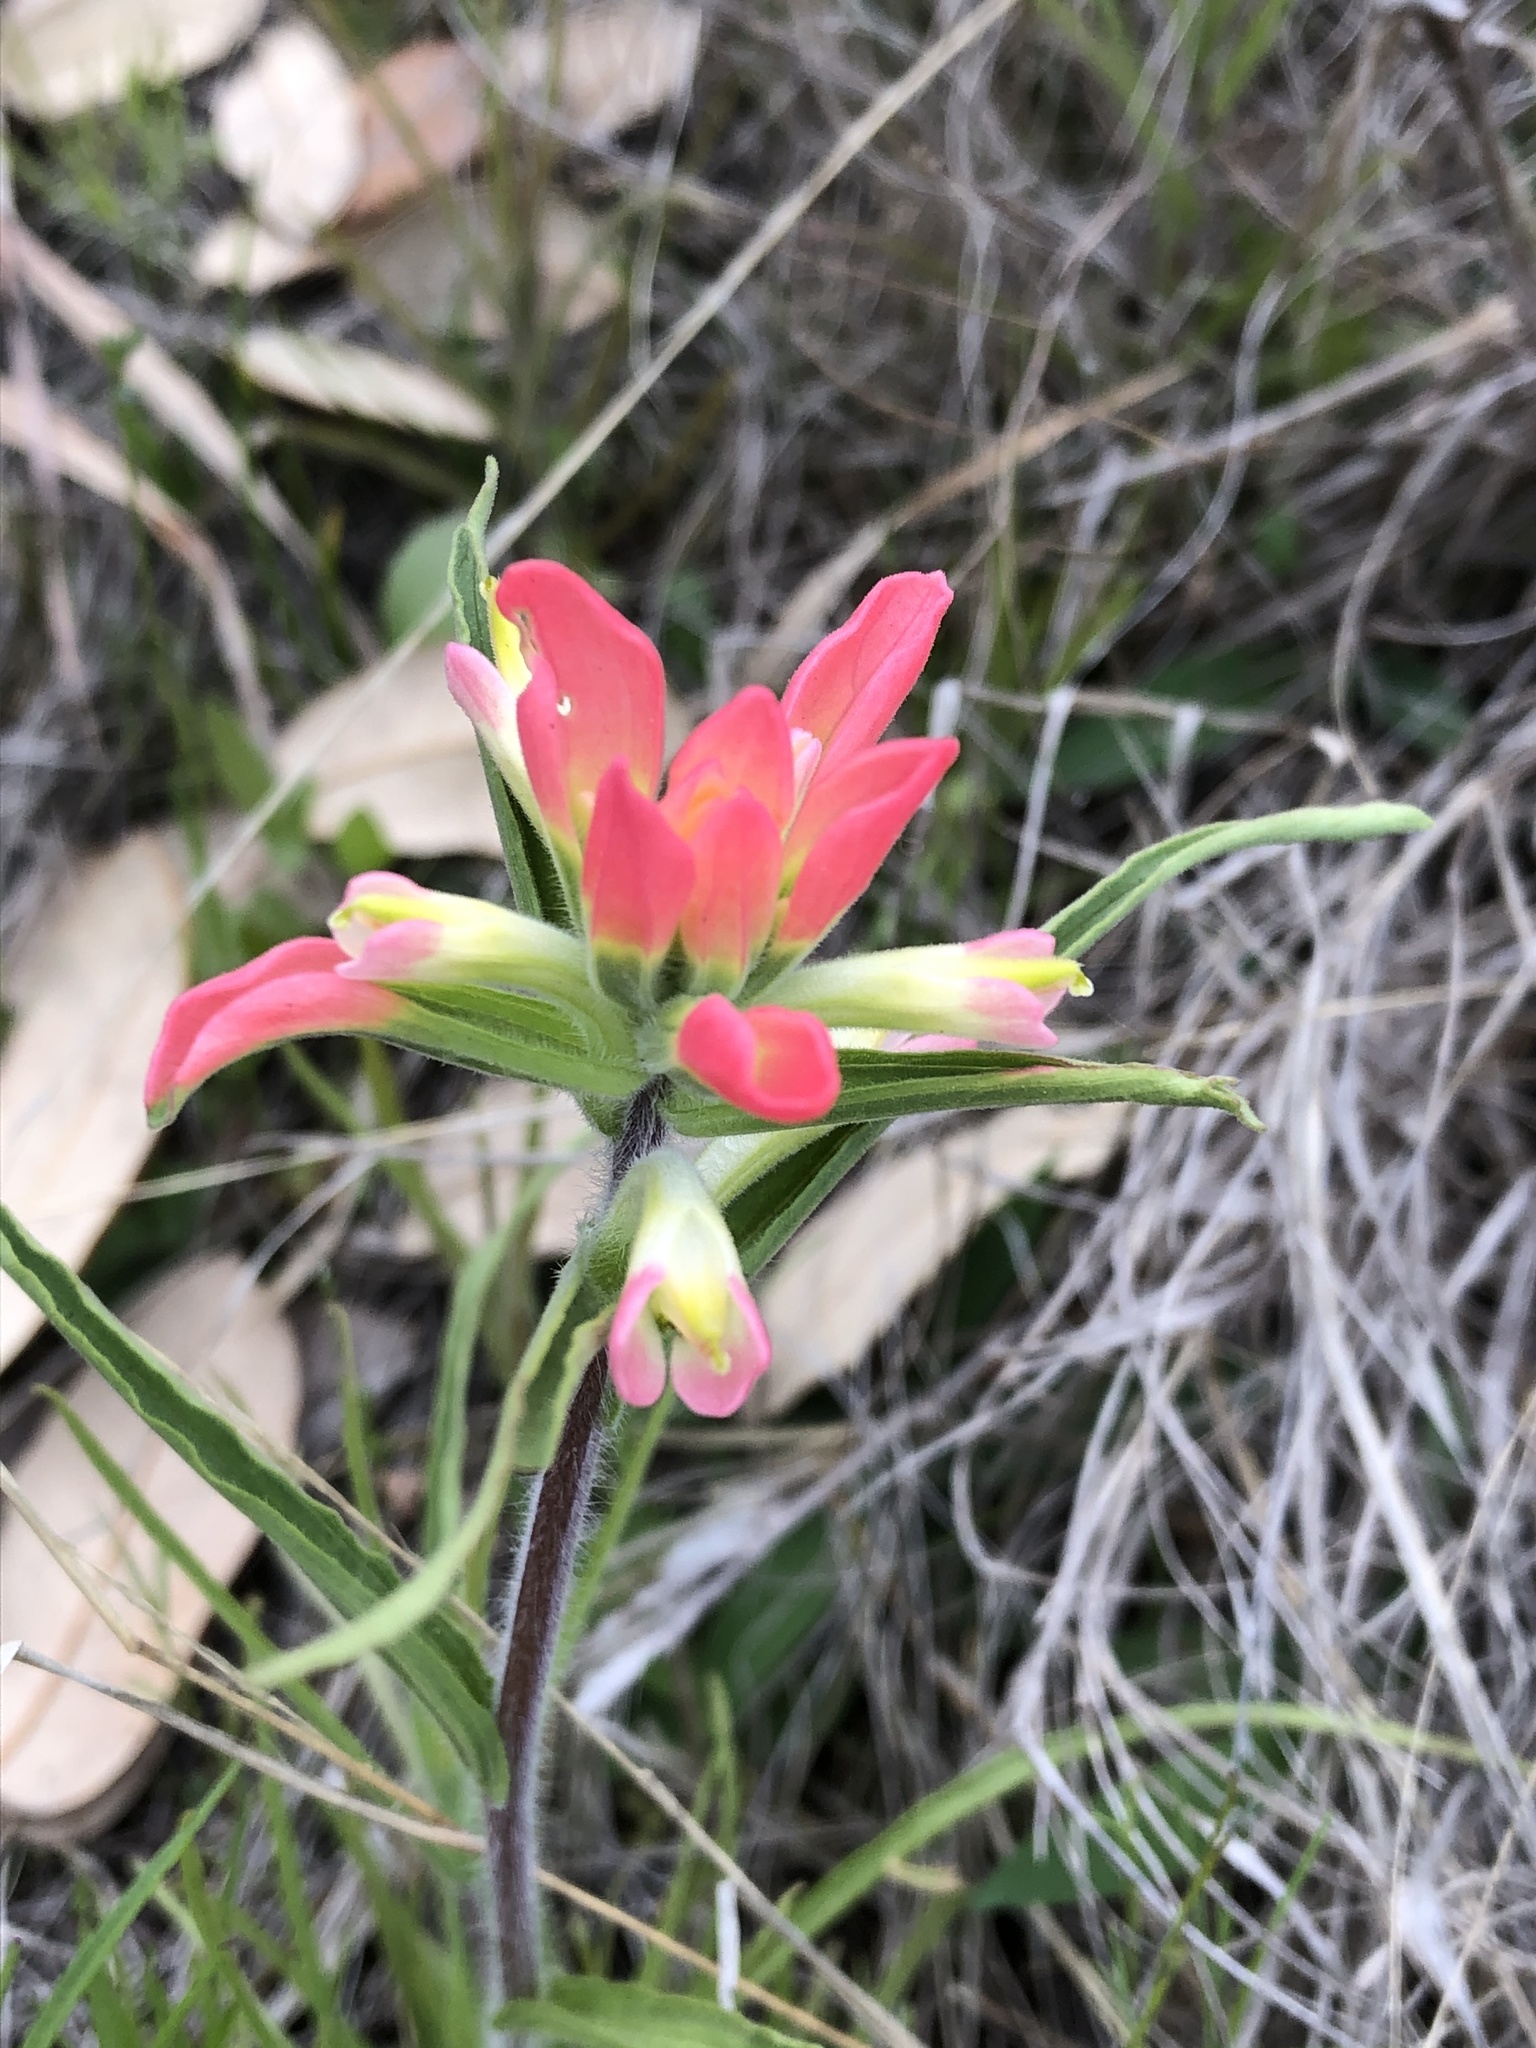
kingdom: Plantae
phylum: Tracheophyta
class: Magnoliopsida
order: Lamiales
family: Orobanchaceae
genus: Castilleja
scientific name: Castilleja indivisa
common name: Texas paintbrush
